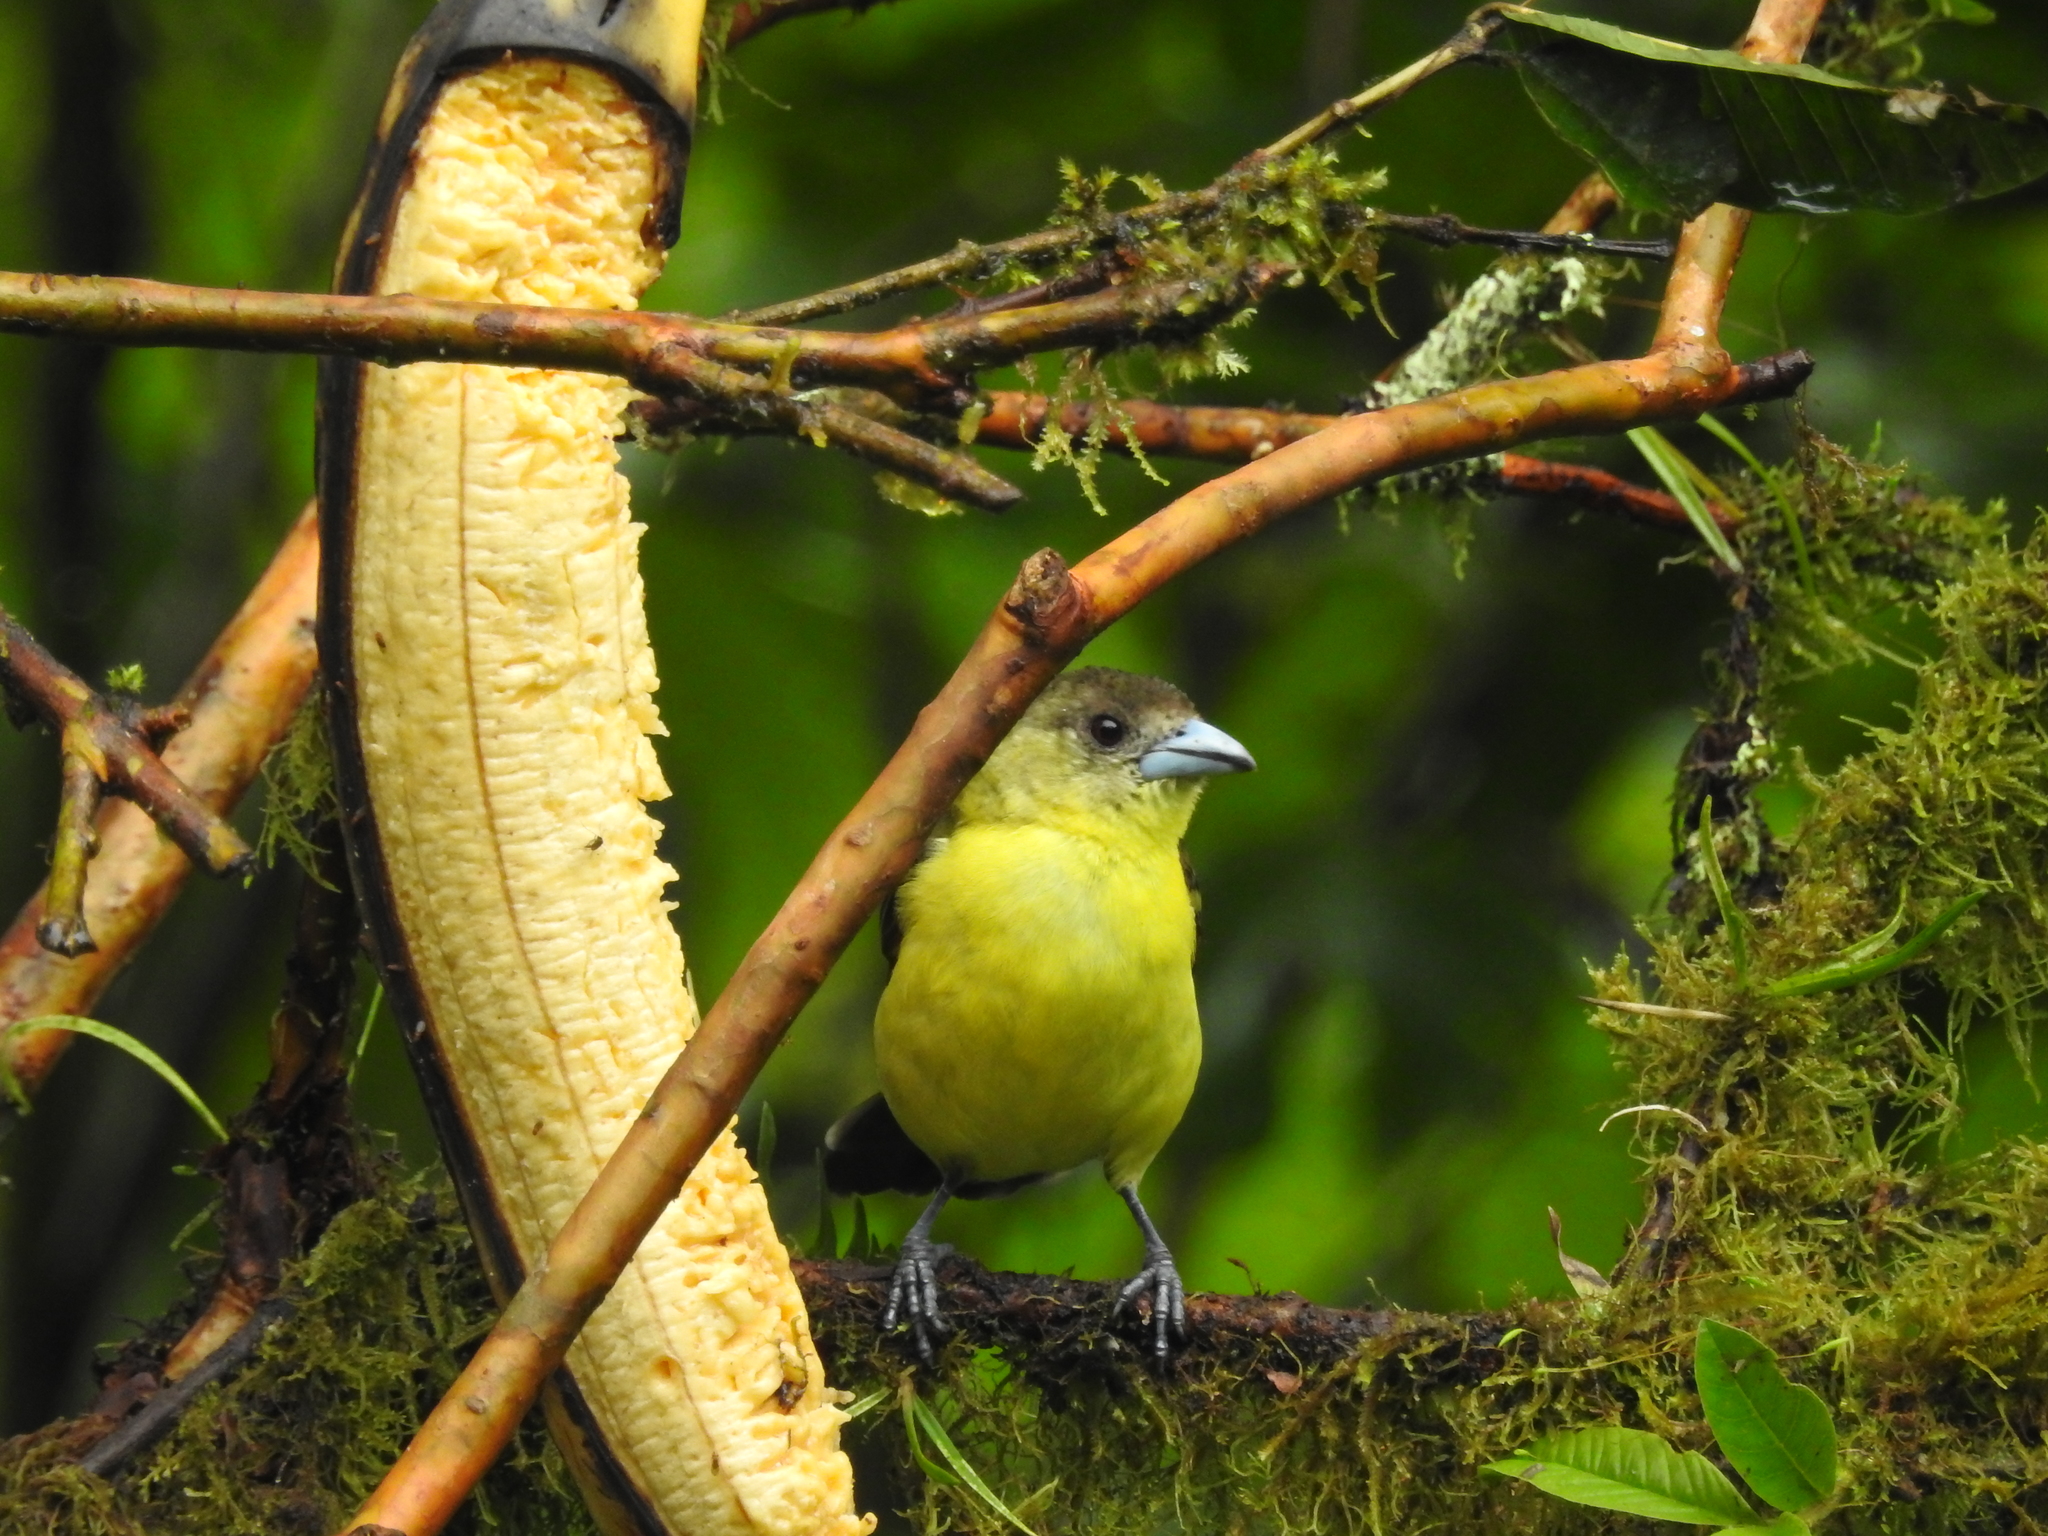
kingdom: Animalia
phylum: Chordata
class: Aves
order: Passeriformes
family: Thraupidae
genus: Ramphocelus
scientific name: Ramphocelus flammigerus
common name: Flame-rumped tanager
